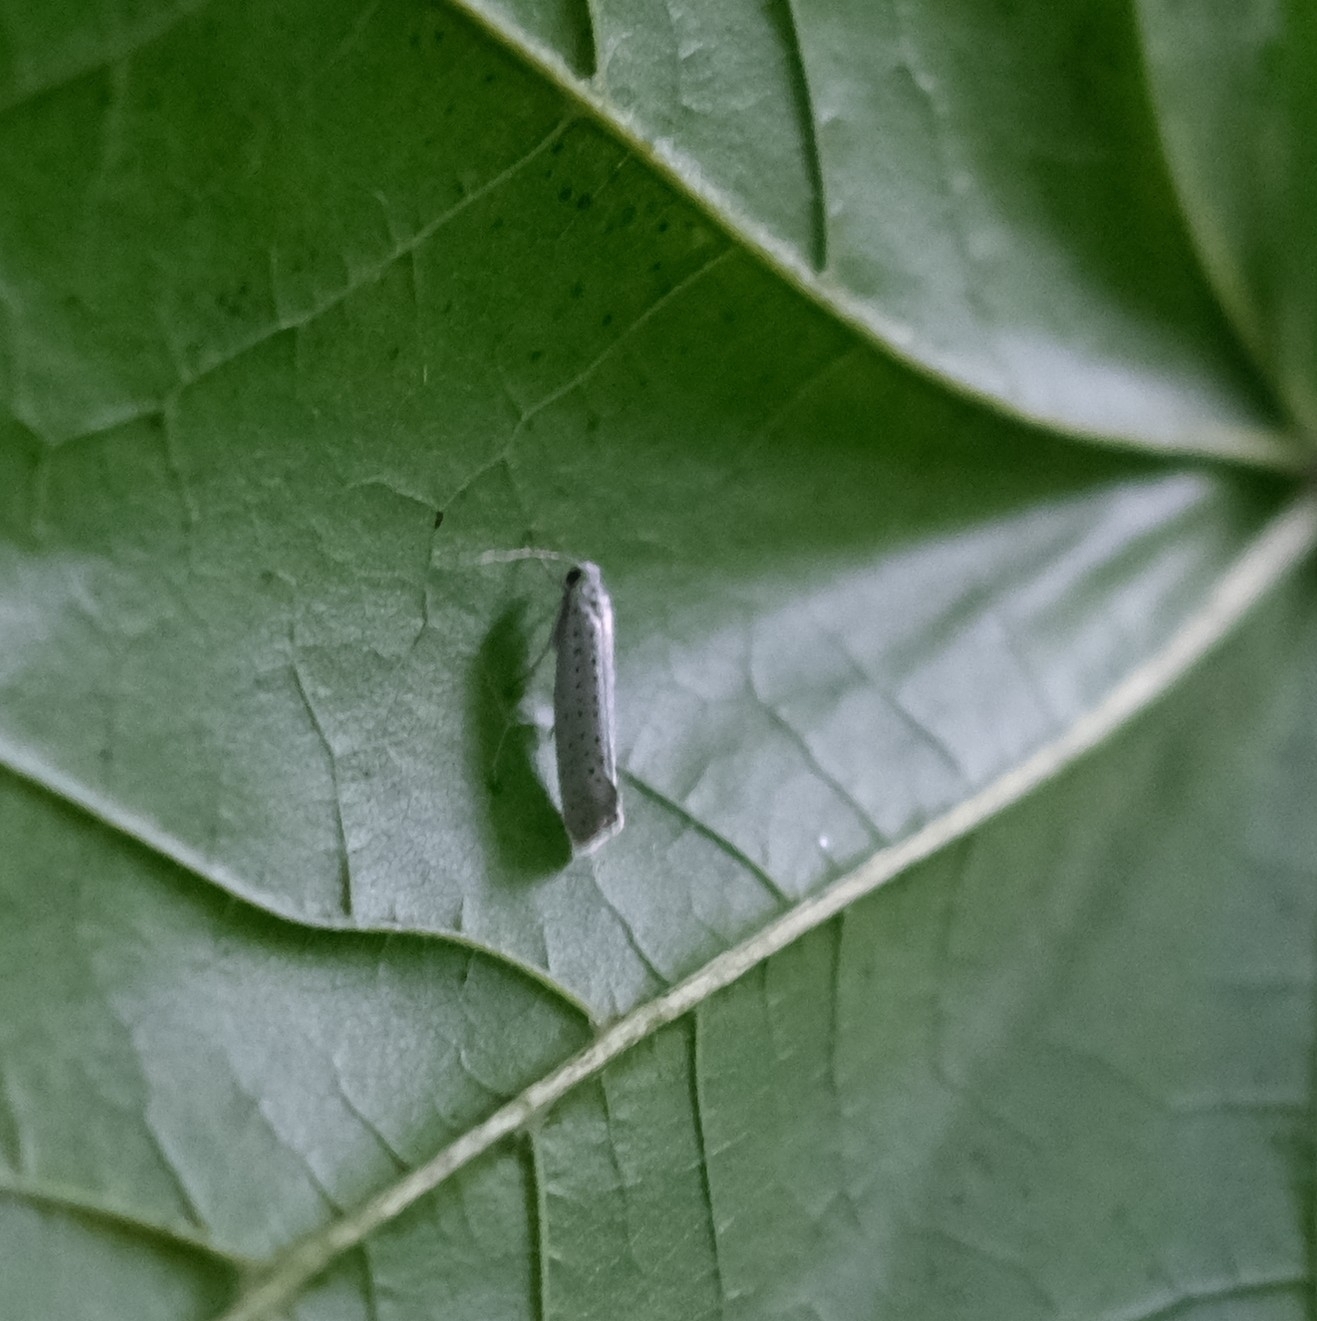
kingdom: Animalia
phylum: Arthropoda
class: Insecta
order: Lepidoptera
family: Yponomeutidae
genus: Yponomeuta
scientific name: Yponomeuta evonymella
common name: Bird-cherry ermine
